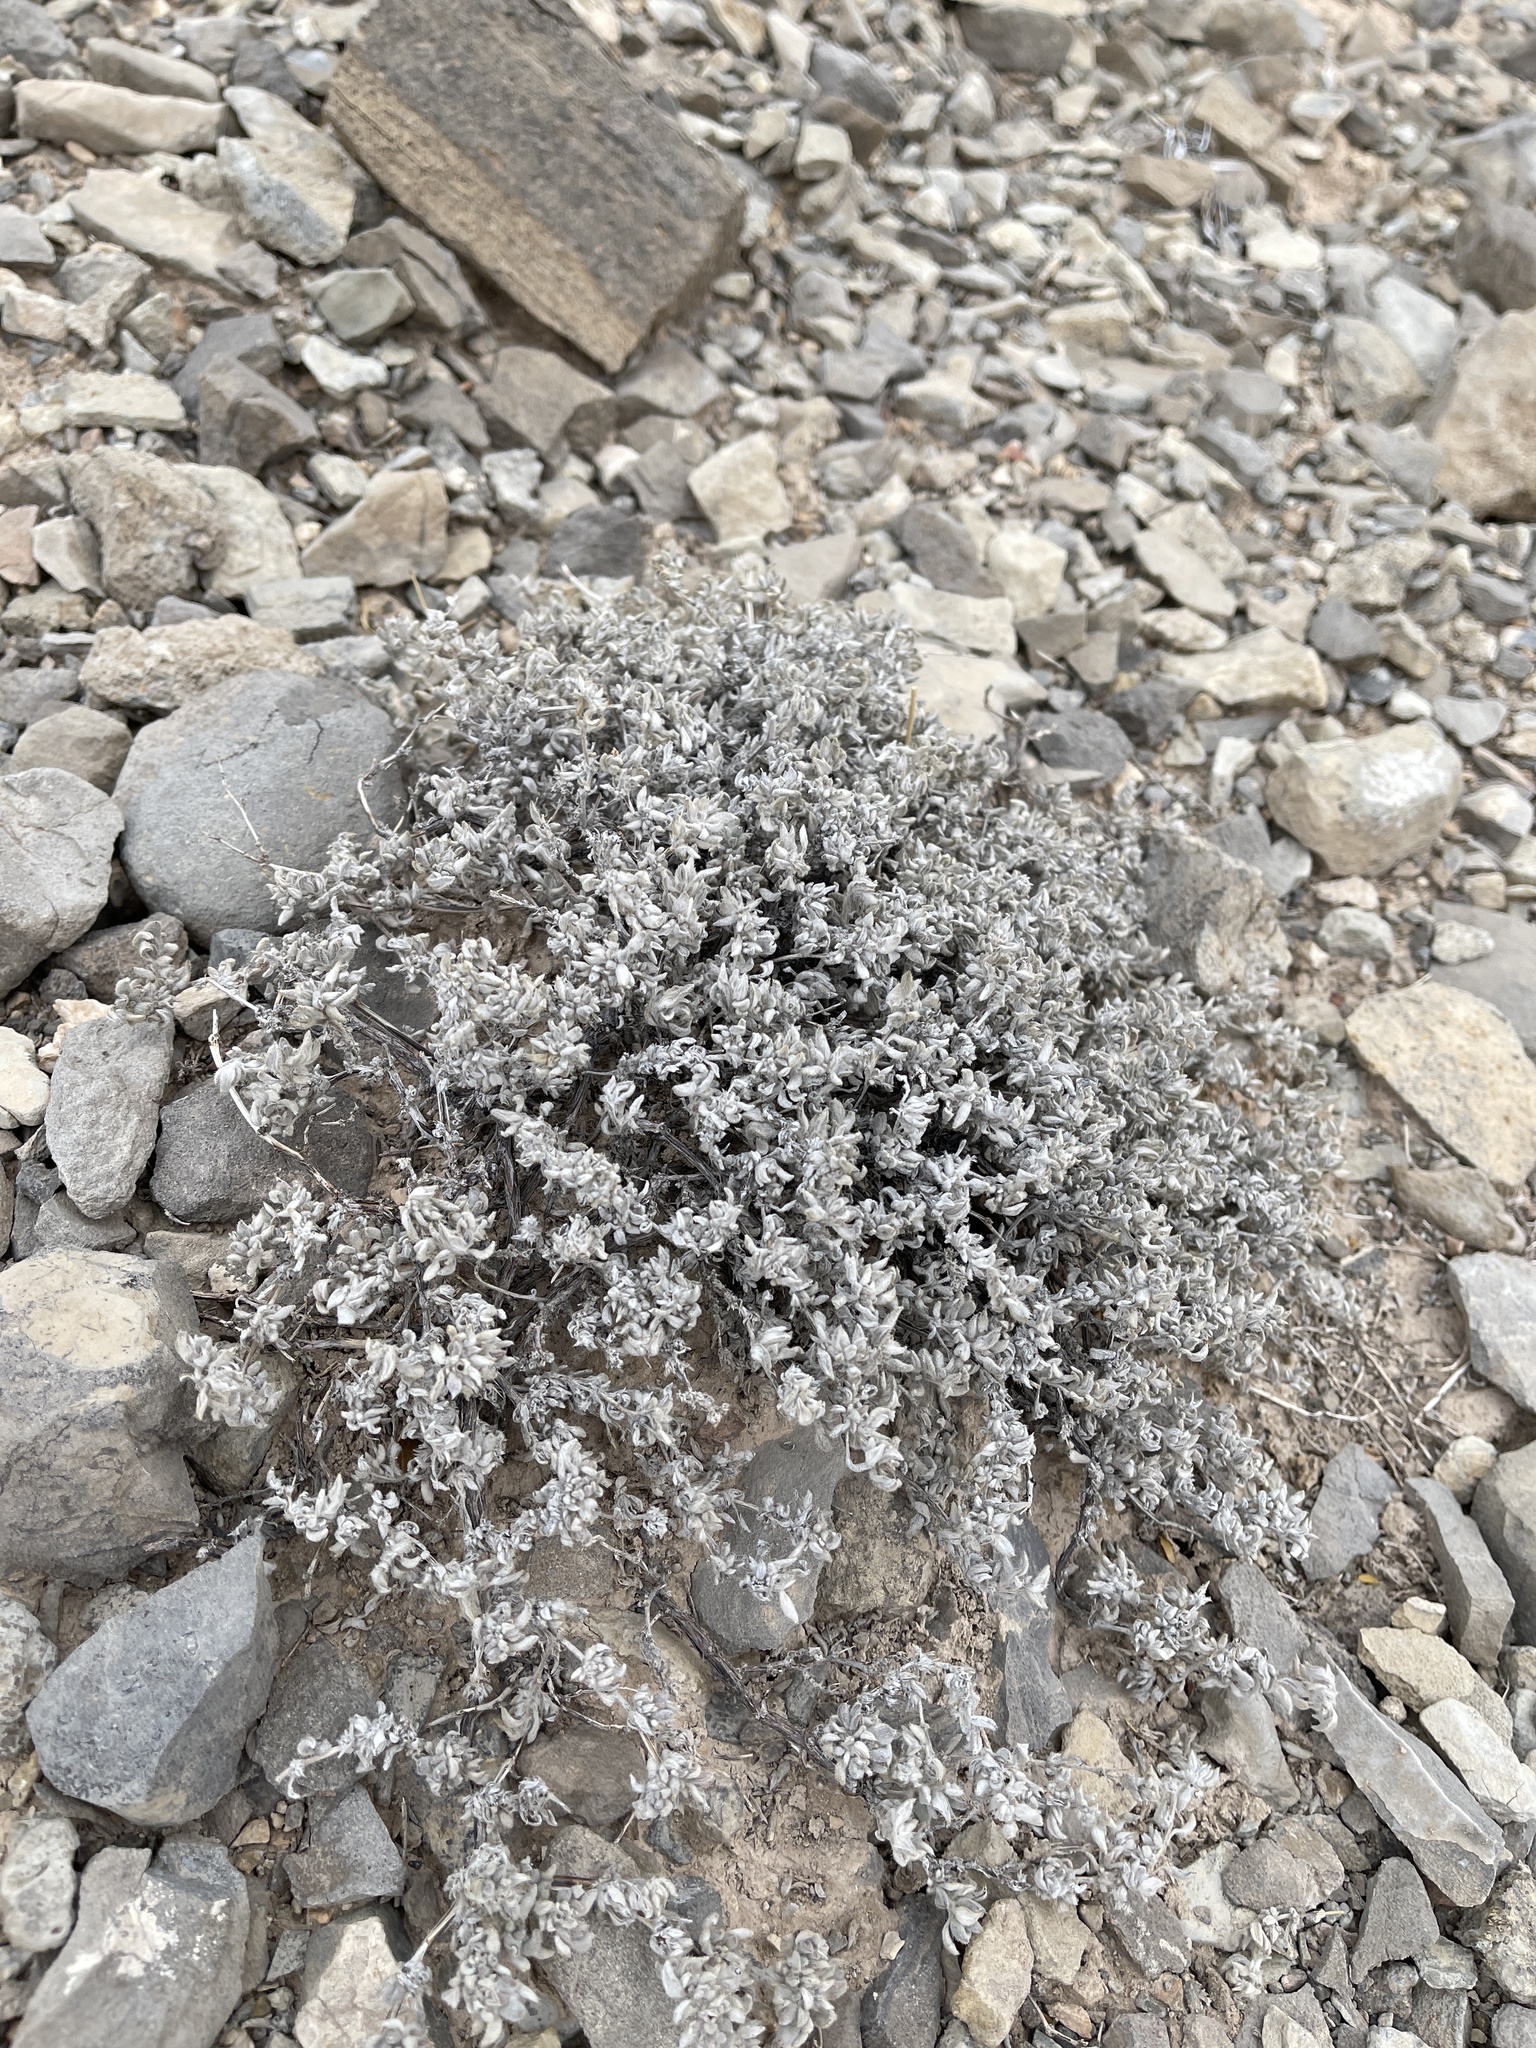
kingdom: Plantae
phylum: Tracheophyta
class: Magnoliopsida
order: Boraginales
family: Ehretiaceae
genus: Tiquilia
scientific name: Tiquilia canescens
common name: Hairy tiquilia
